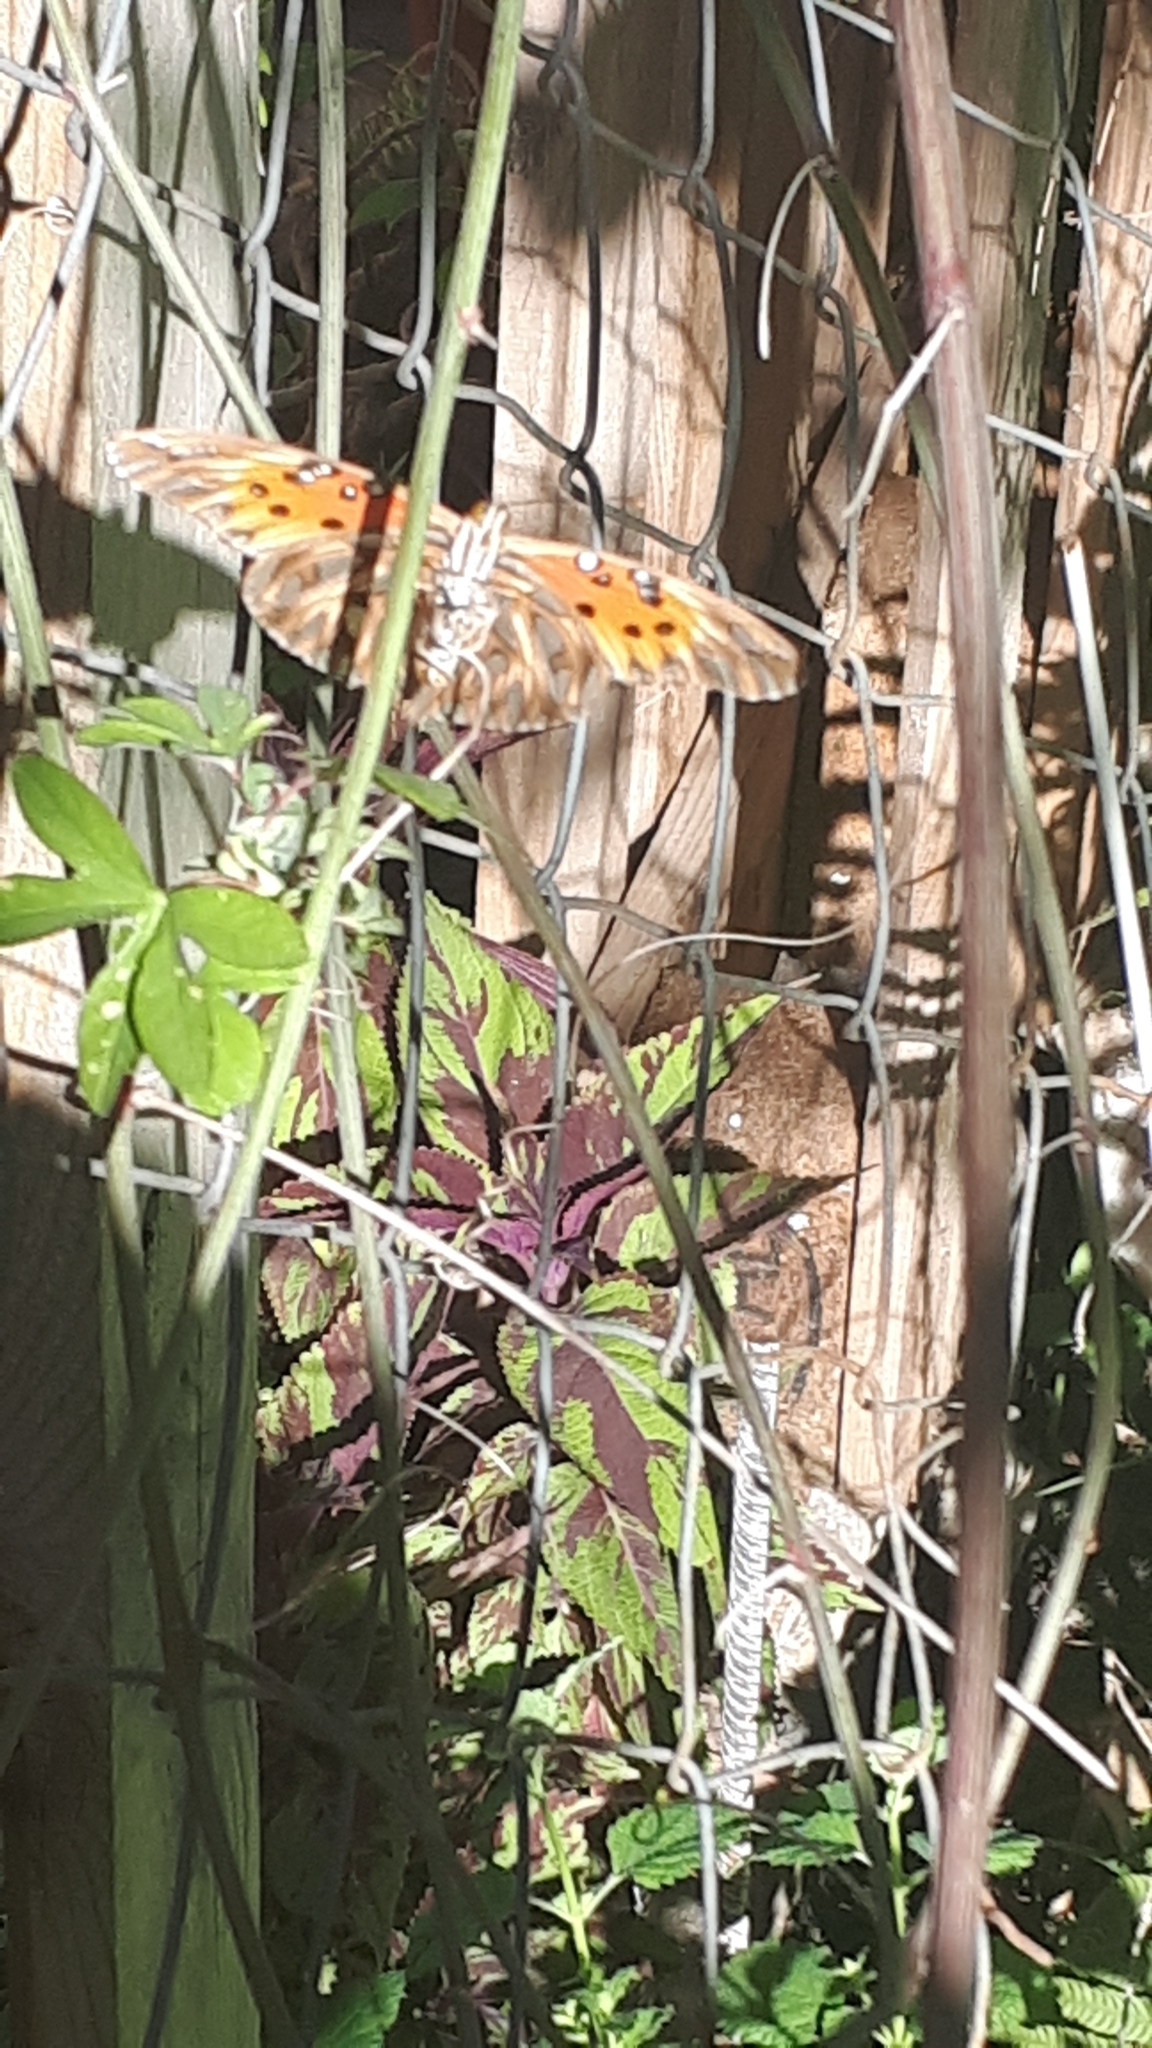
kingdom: Animalia
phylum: Arthropoda
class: Insecta
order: Lepidoptera
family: Nymphalidae
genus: Dione
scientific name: Dione vanillae
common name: Gulf fritillary
